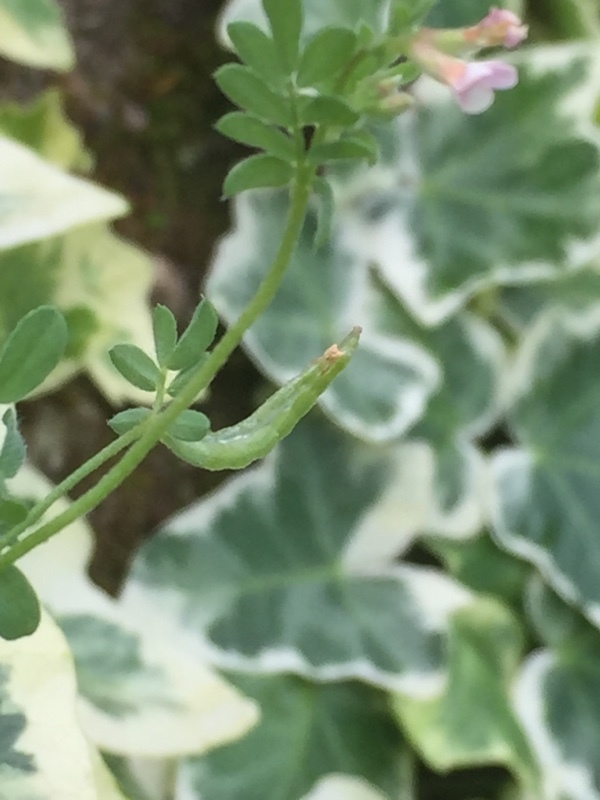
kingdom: Plantae
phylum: Tracheophyta
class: Magnoliopsida
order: Fabales
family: Fabaceae
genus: Ornithopus
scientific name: Ornithopus perpusillus
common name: Bird's-foot
